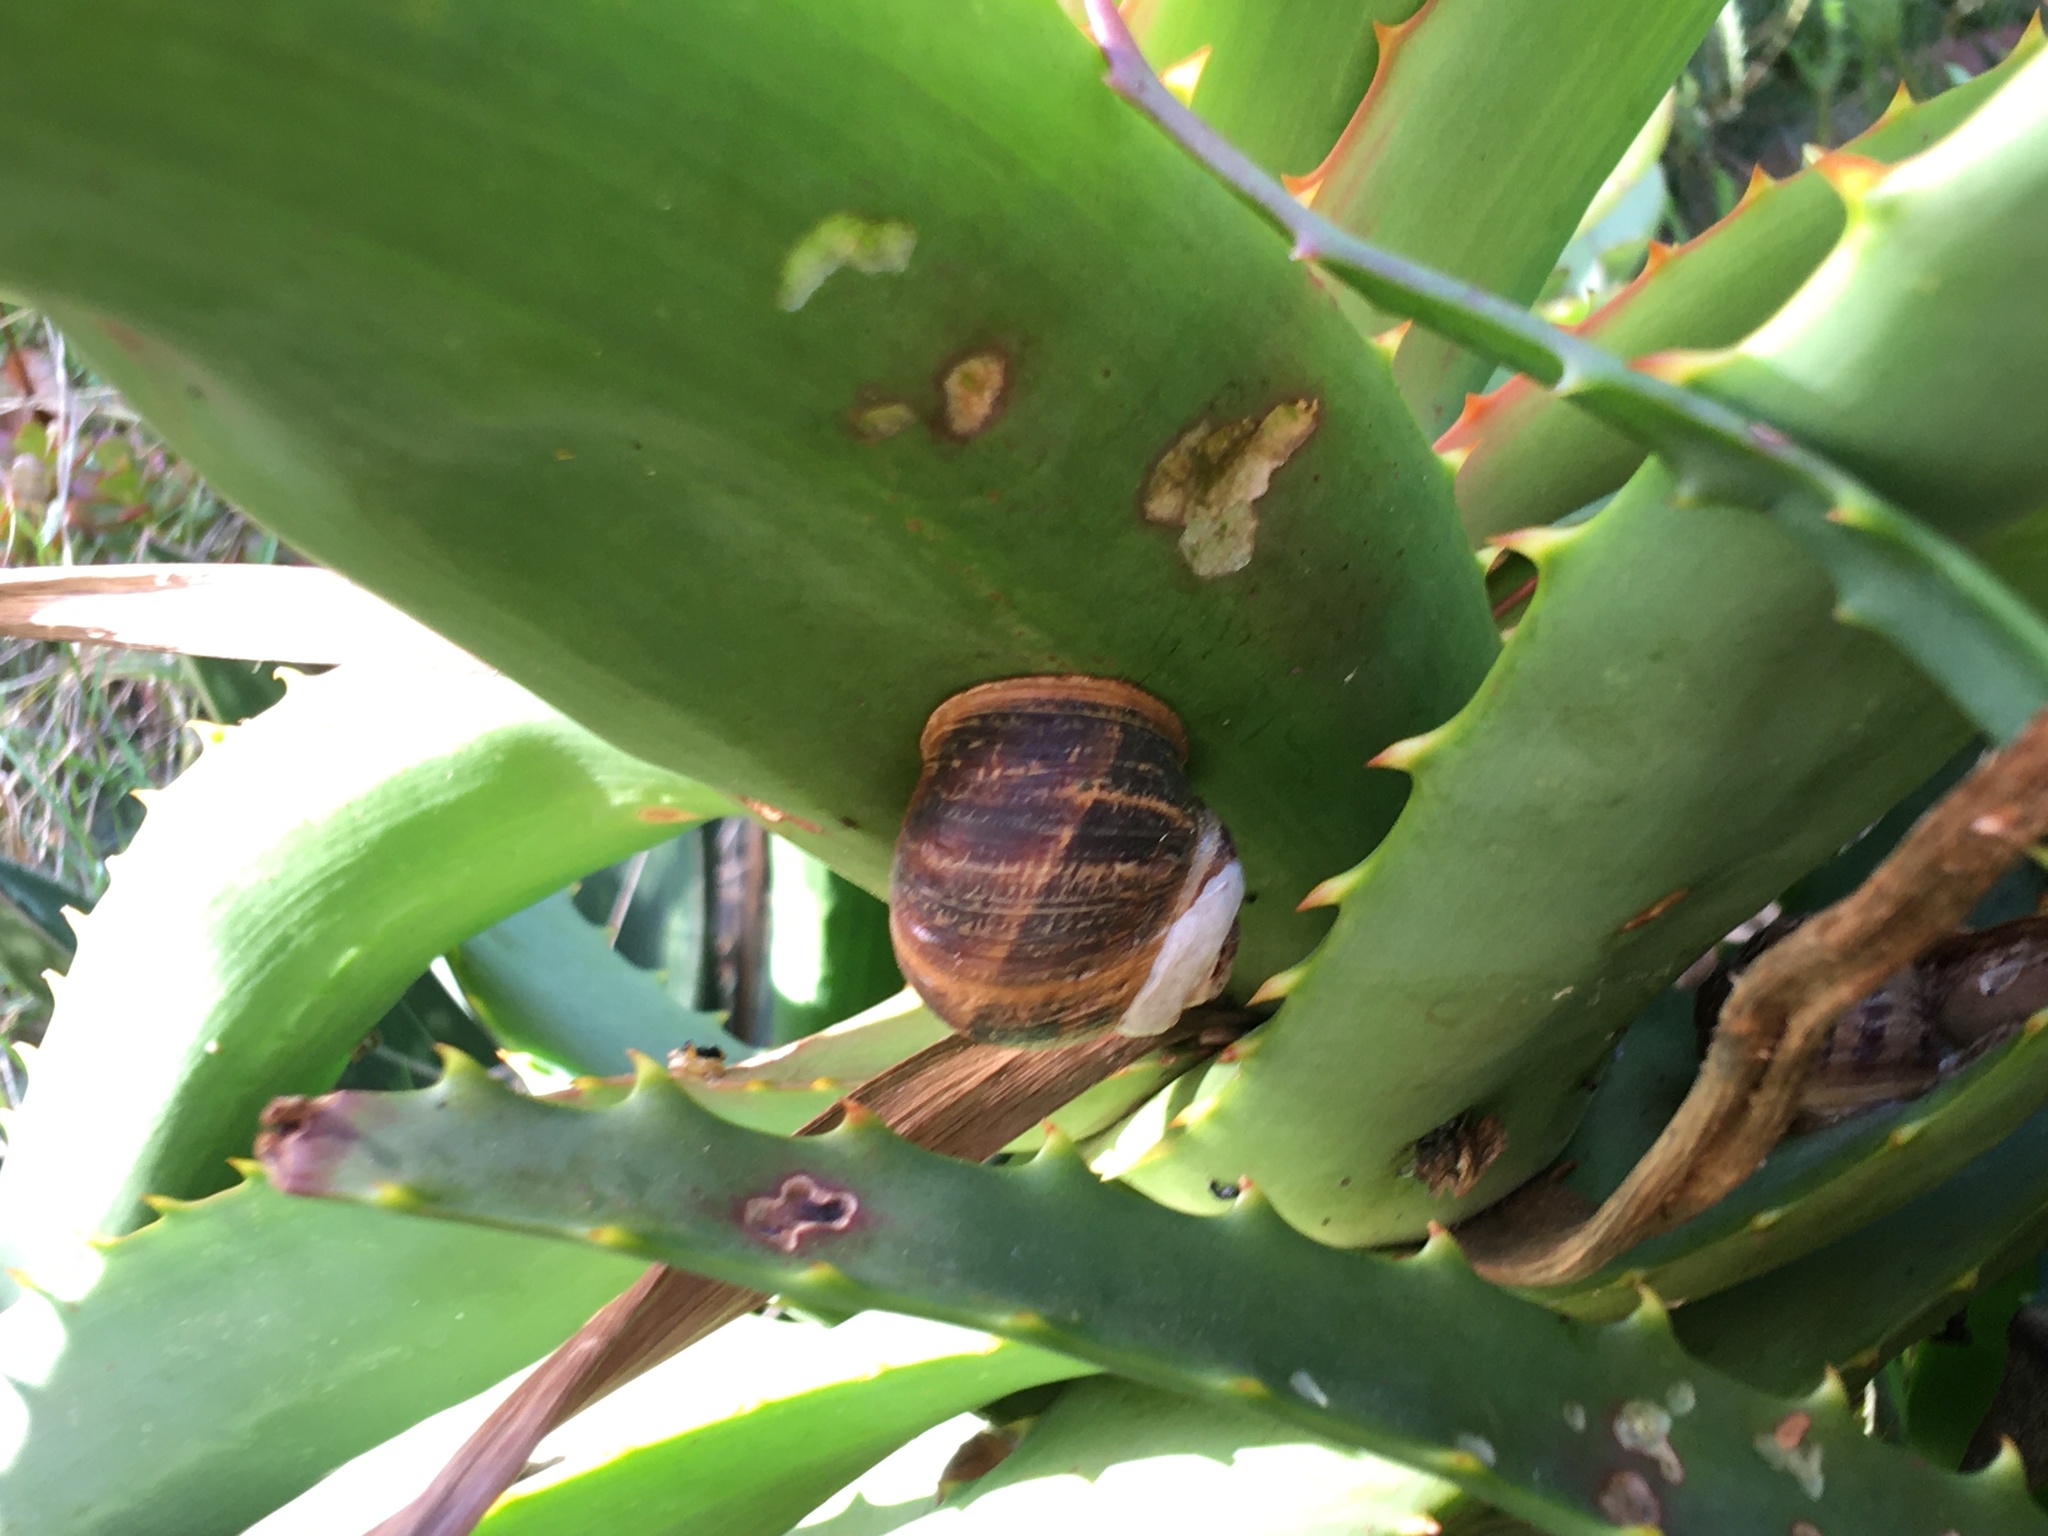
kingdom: Animalia
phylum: Mollusca
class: Gastropoda
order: Stylommatophora
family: Helicidae
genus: Cornu
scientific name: Cornu aspersum
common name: Brown garden snail
